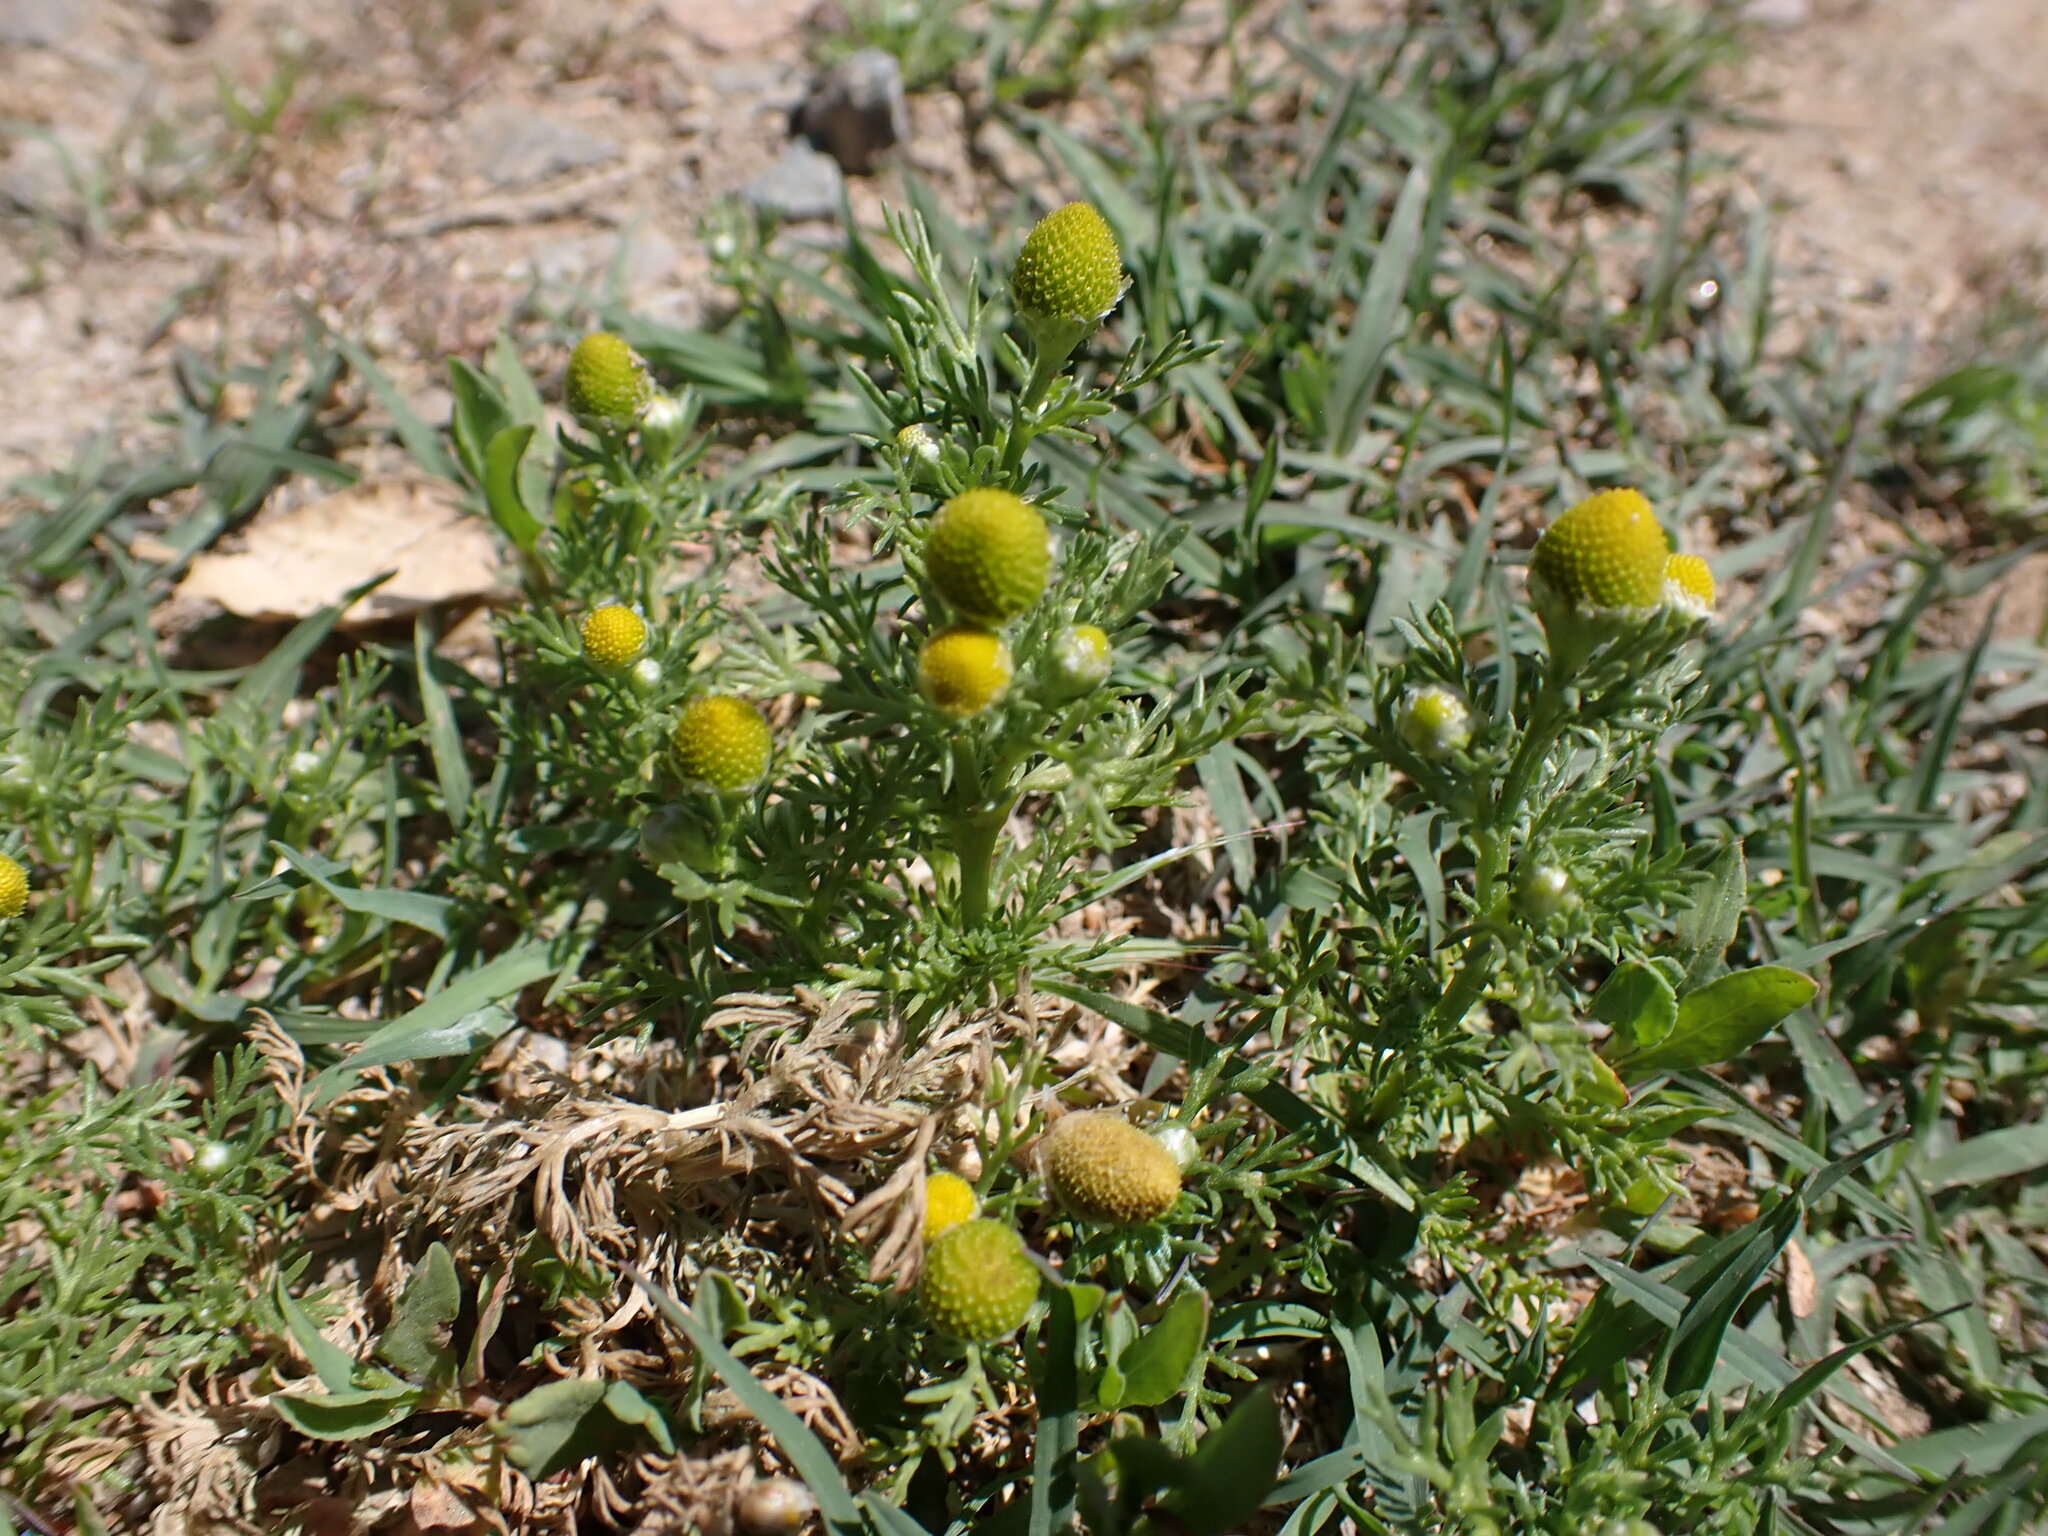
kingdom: Plantae
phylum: Tracheophyta
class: Magnoliopsida
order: Asterales
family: Asteraceae
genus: Matricaria
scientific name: Matricaria discoidea
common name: Disc mayweed
